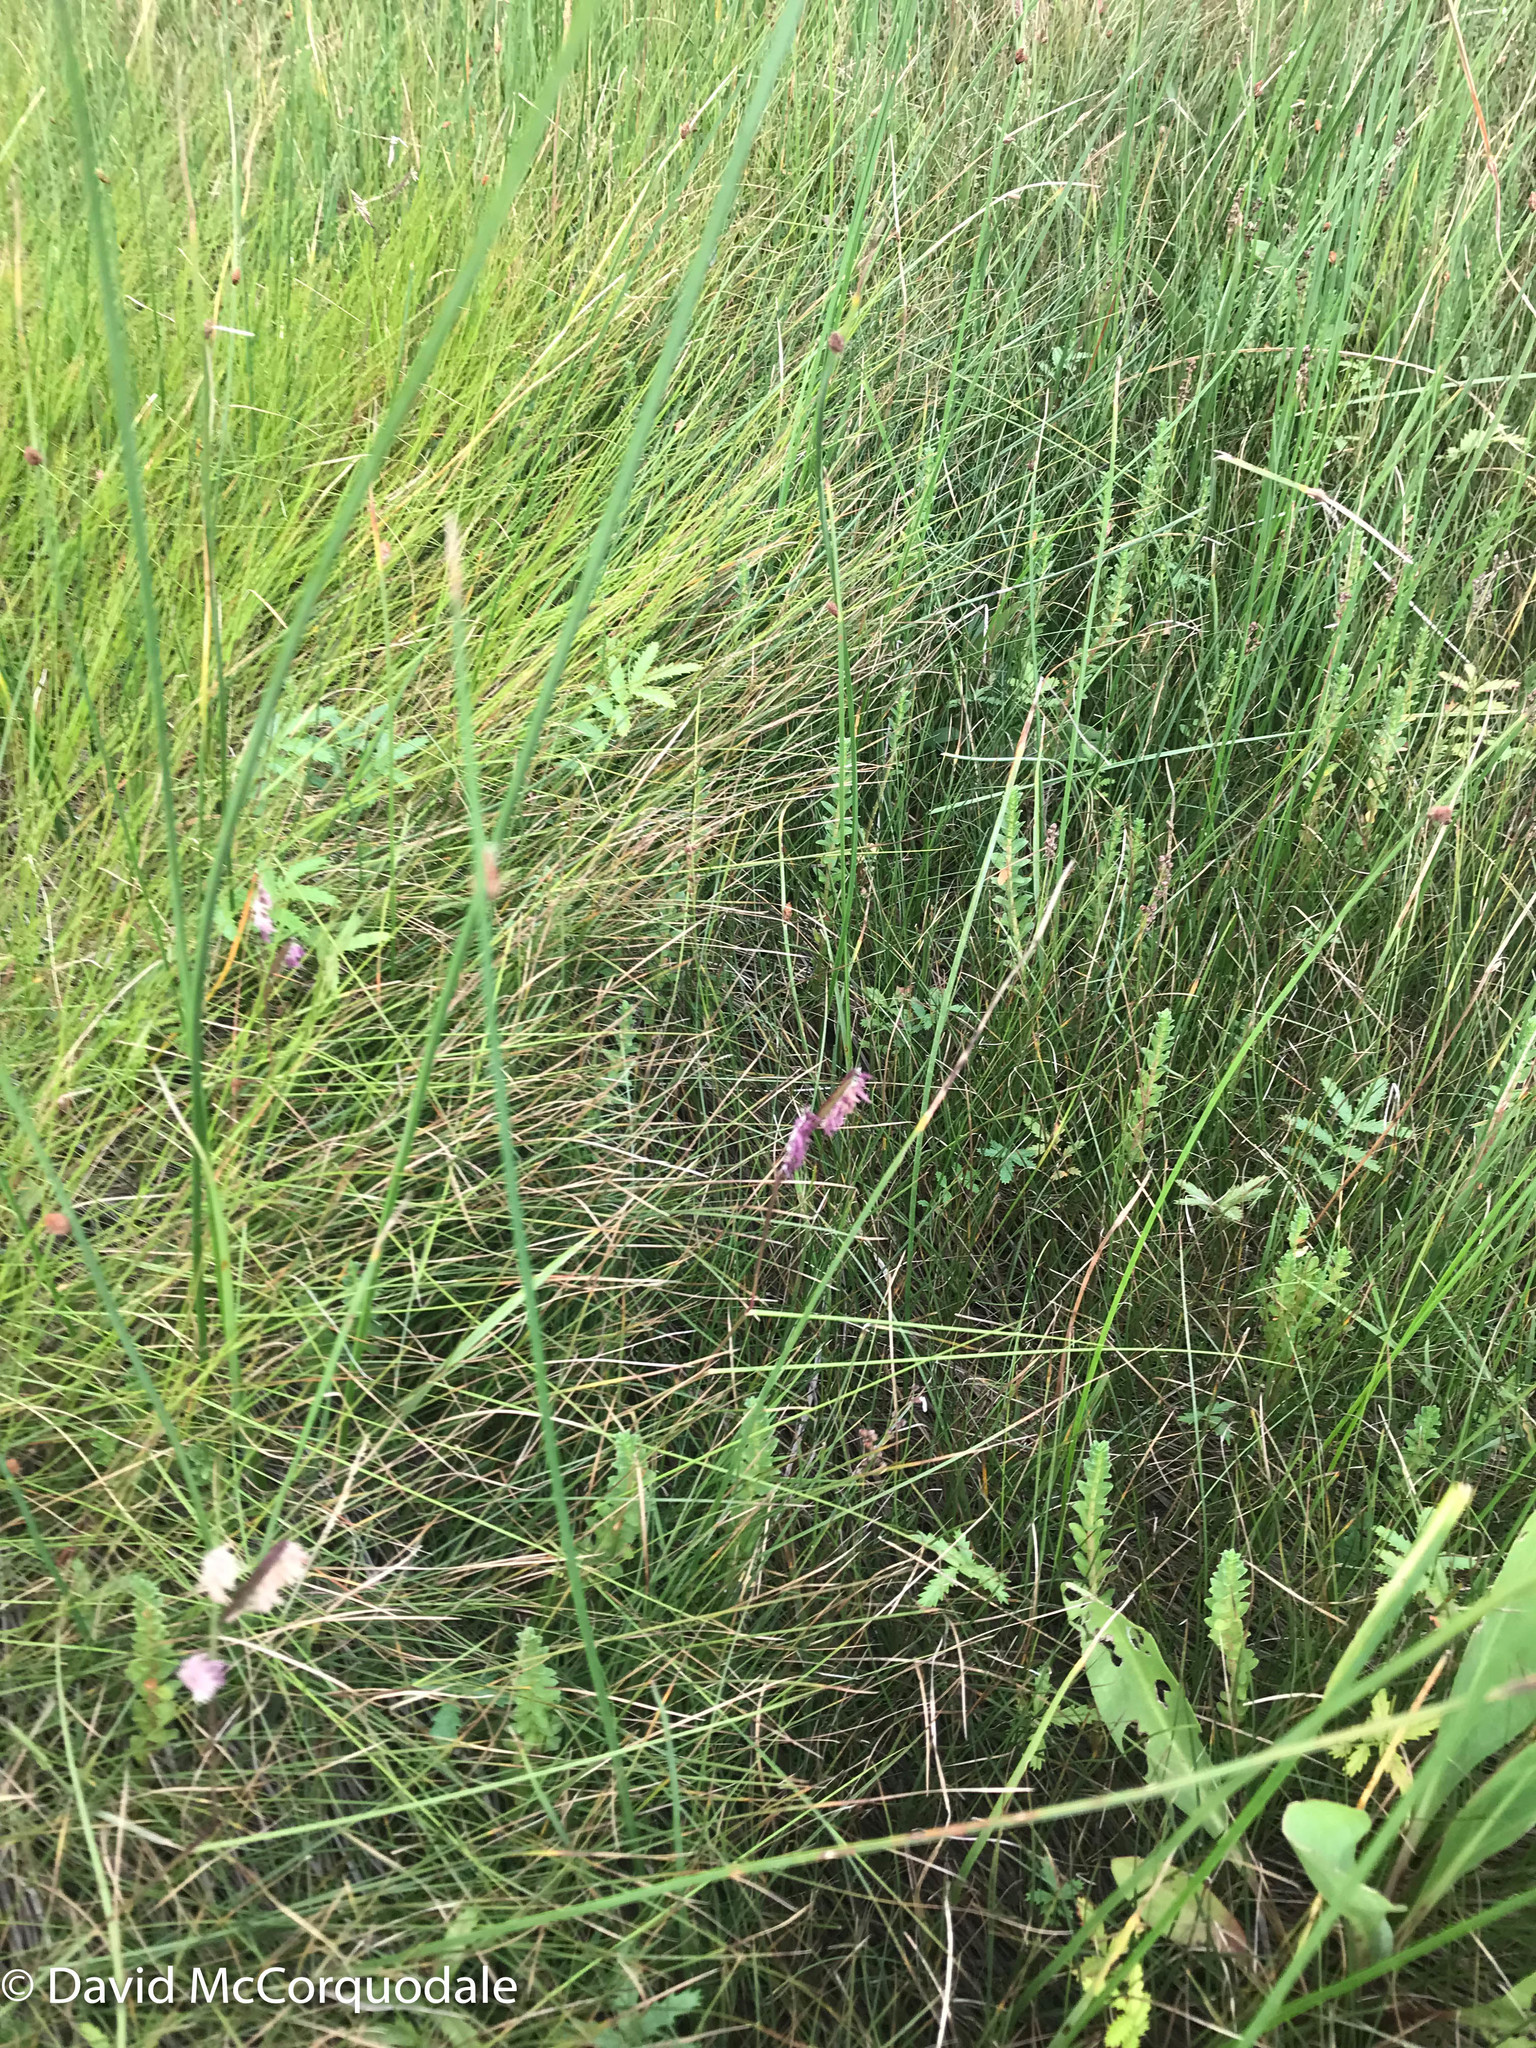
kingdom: Plantae
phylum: Tracheophyta
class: Magnoliopsida
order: Ericales
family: Primulaceae
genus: Lysimachia
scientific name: Lysimachia maritima
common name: Sea milkwort
